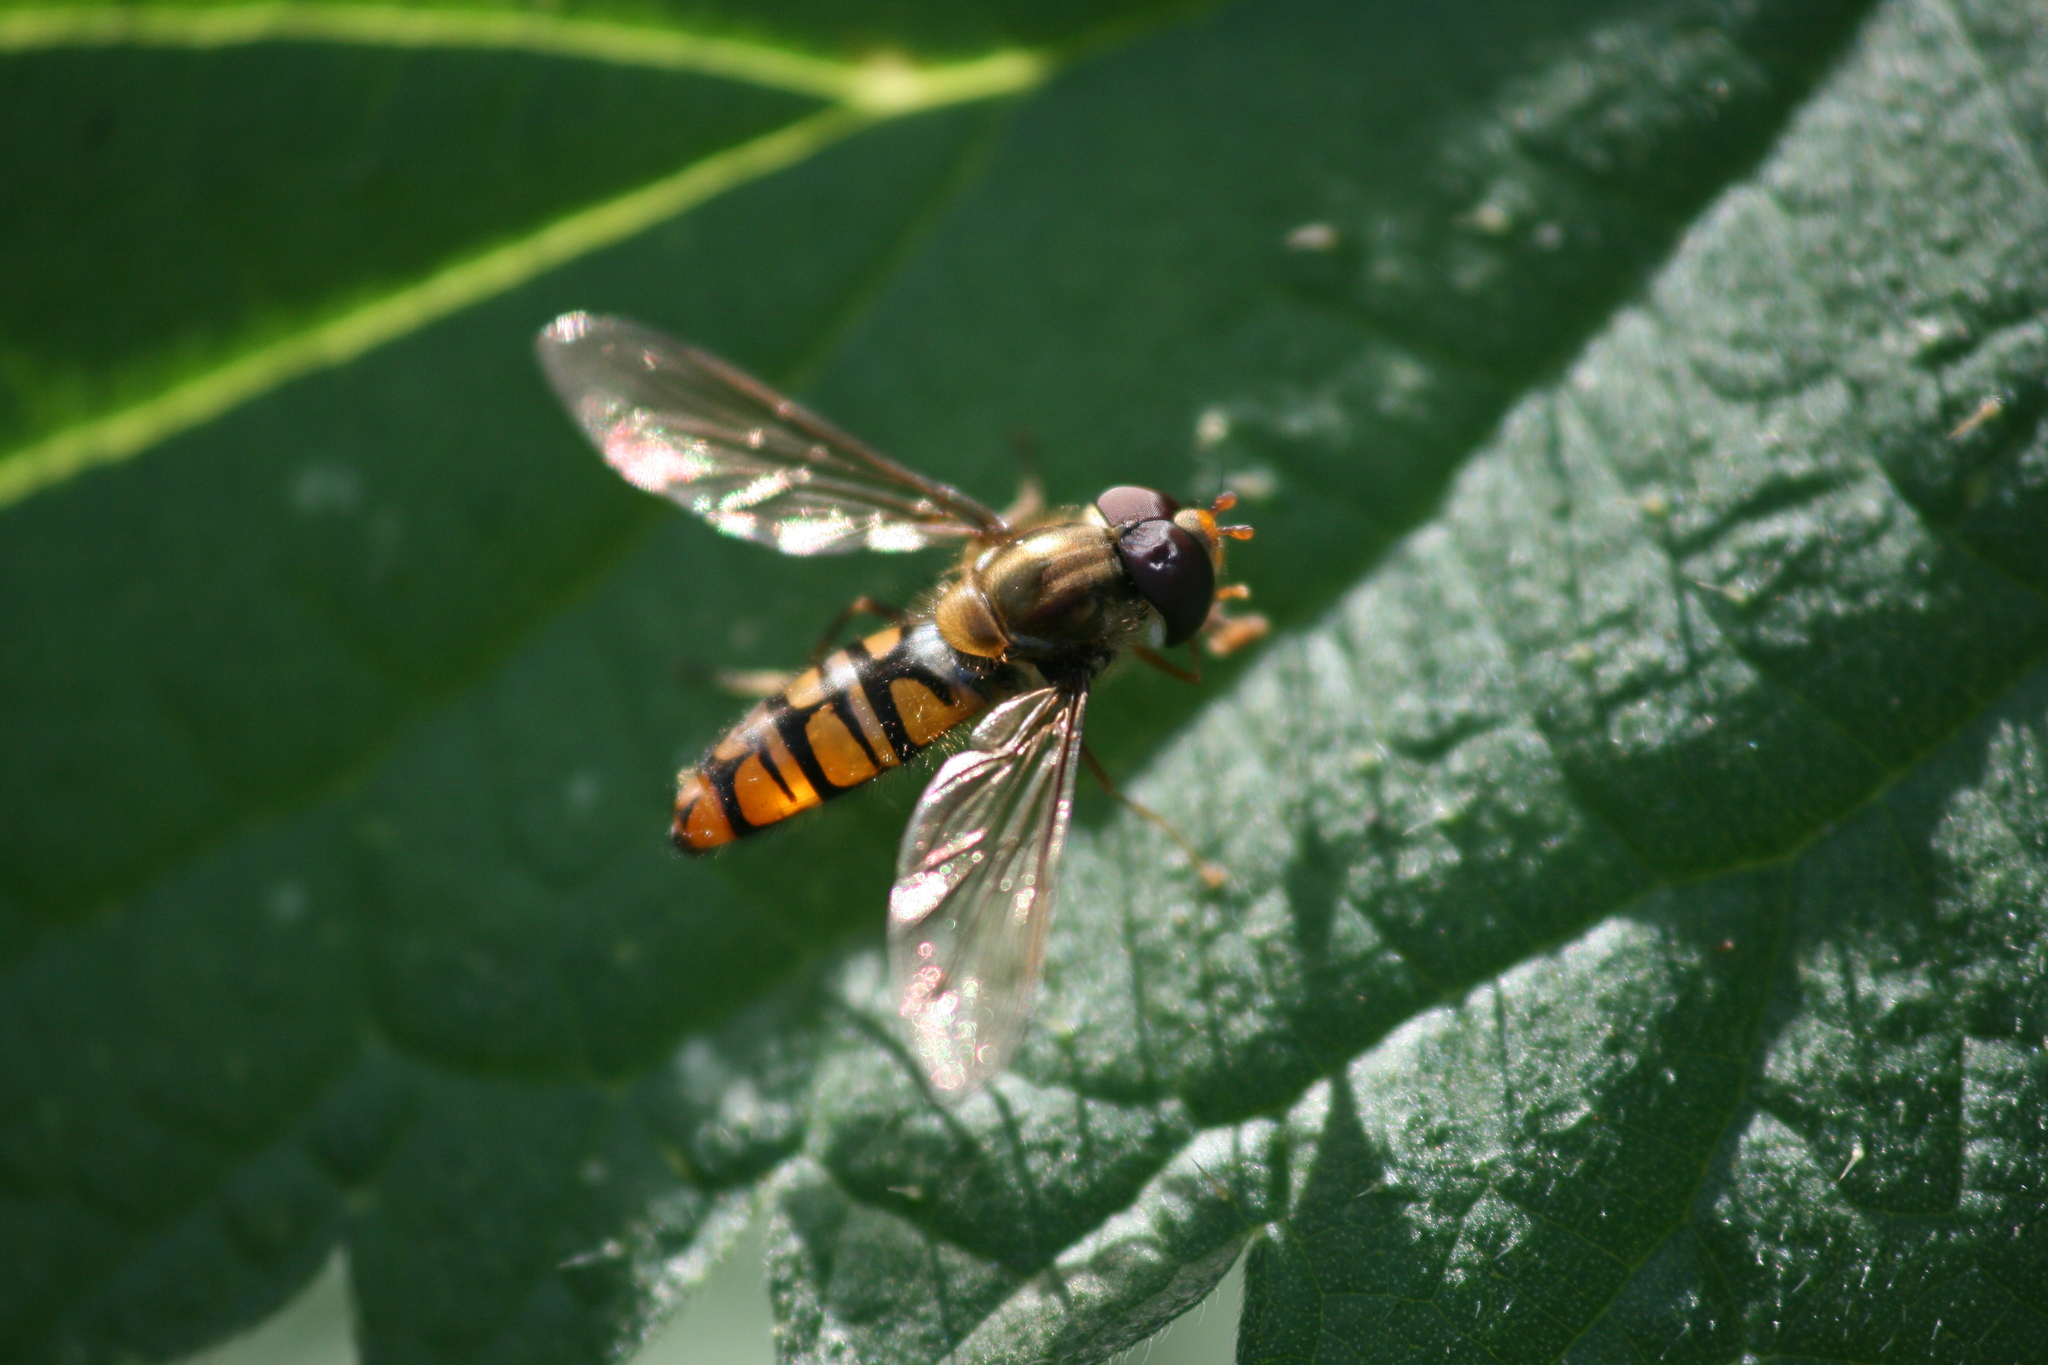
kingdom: Animalia
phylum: Arthropoda
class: Insecta
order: Diptera
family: Syrphidae
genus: Episyrphus
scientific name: Episyrphus balteatus
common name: Marmalade hoverfly
